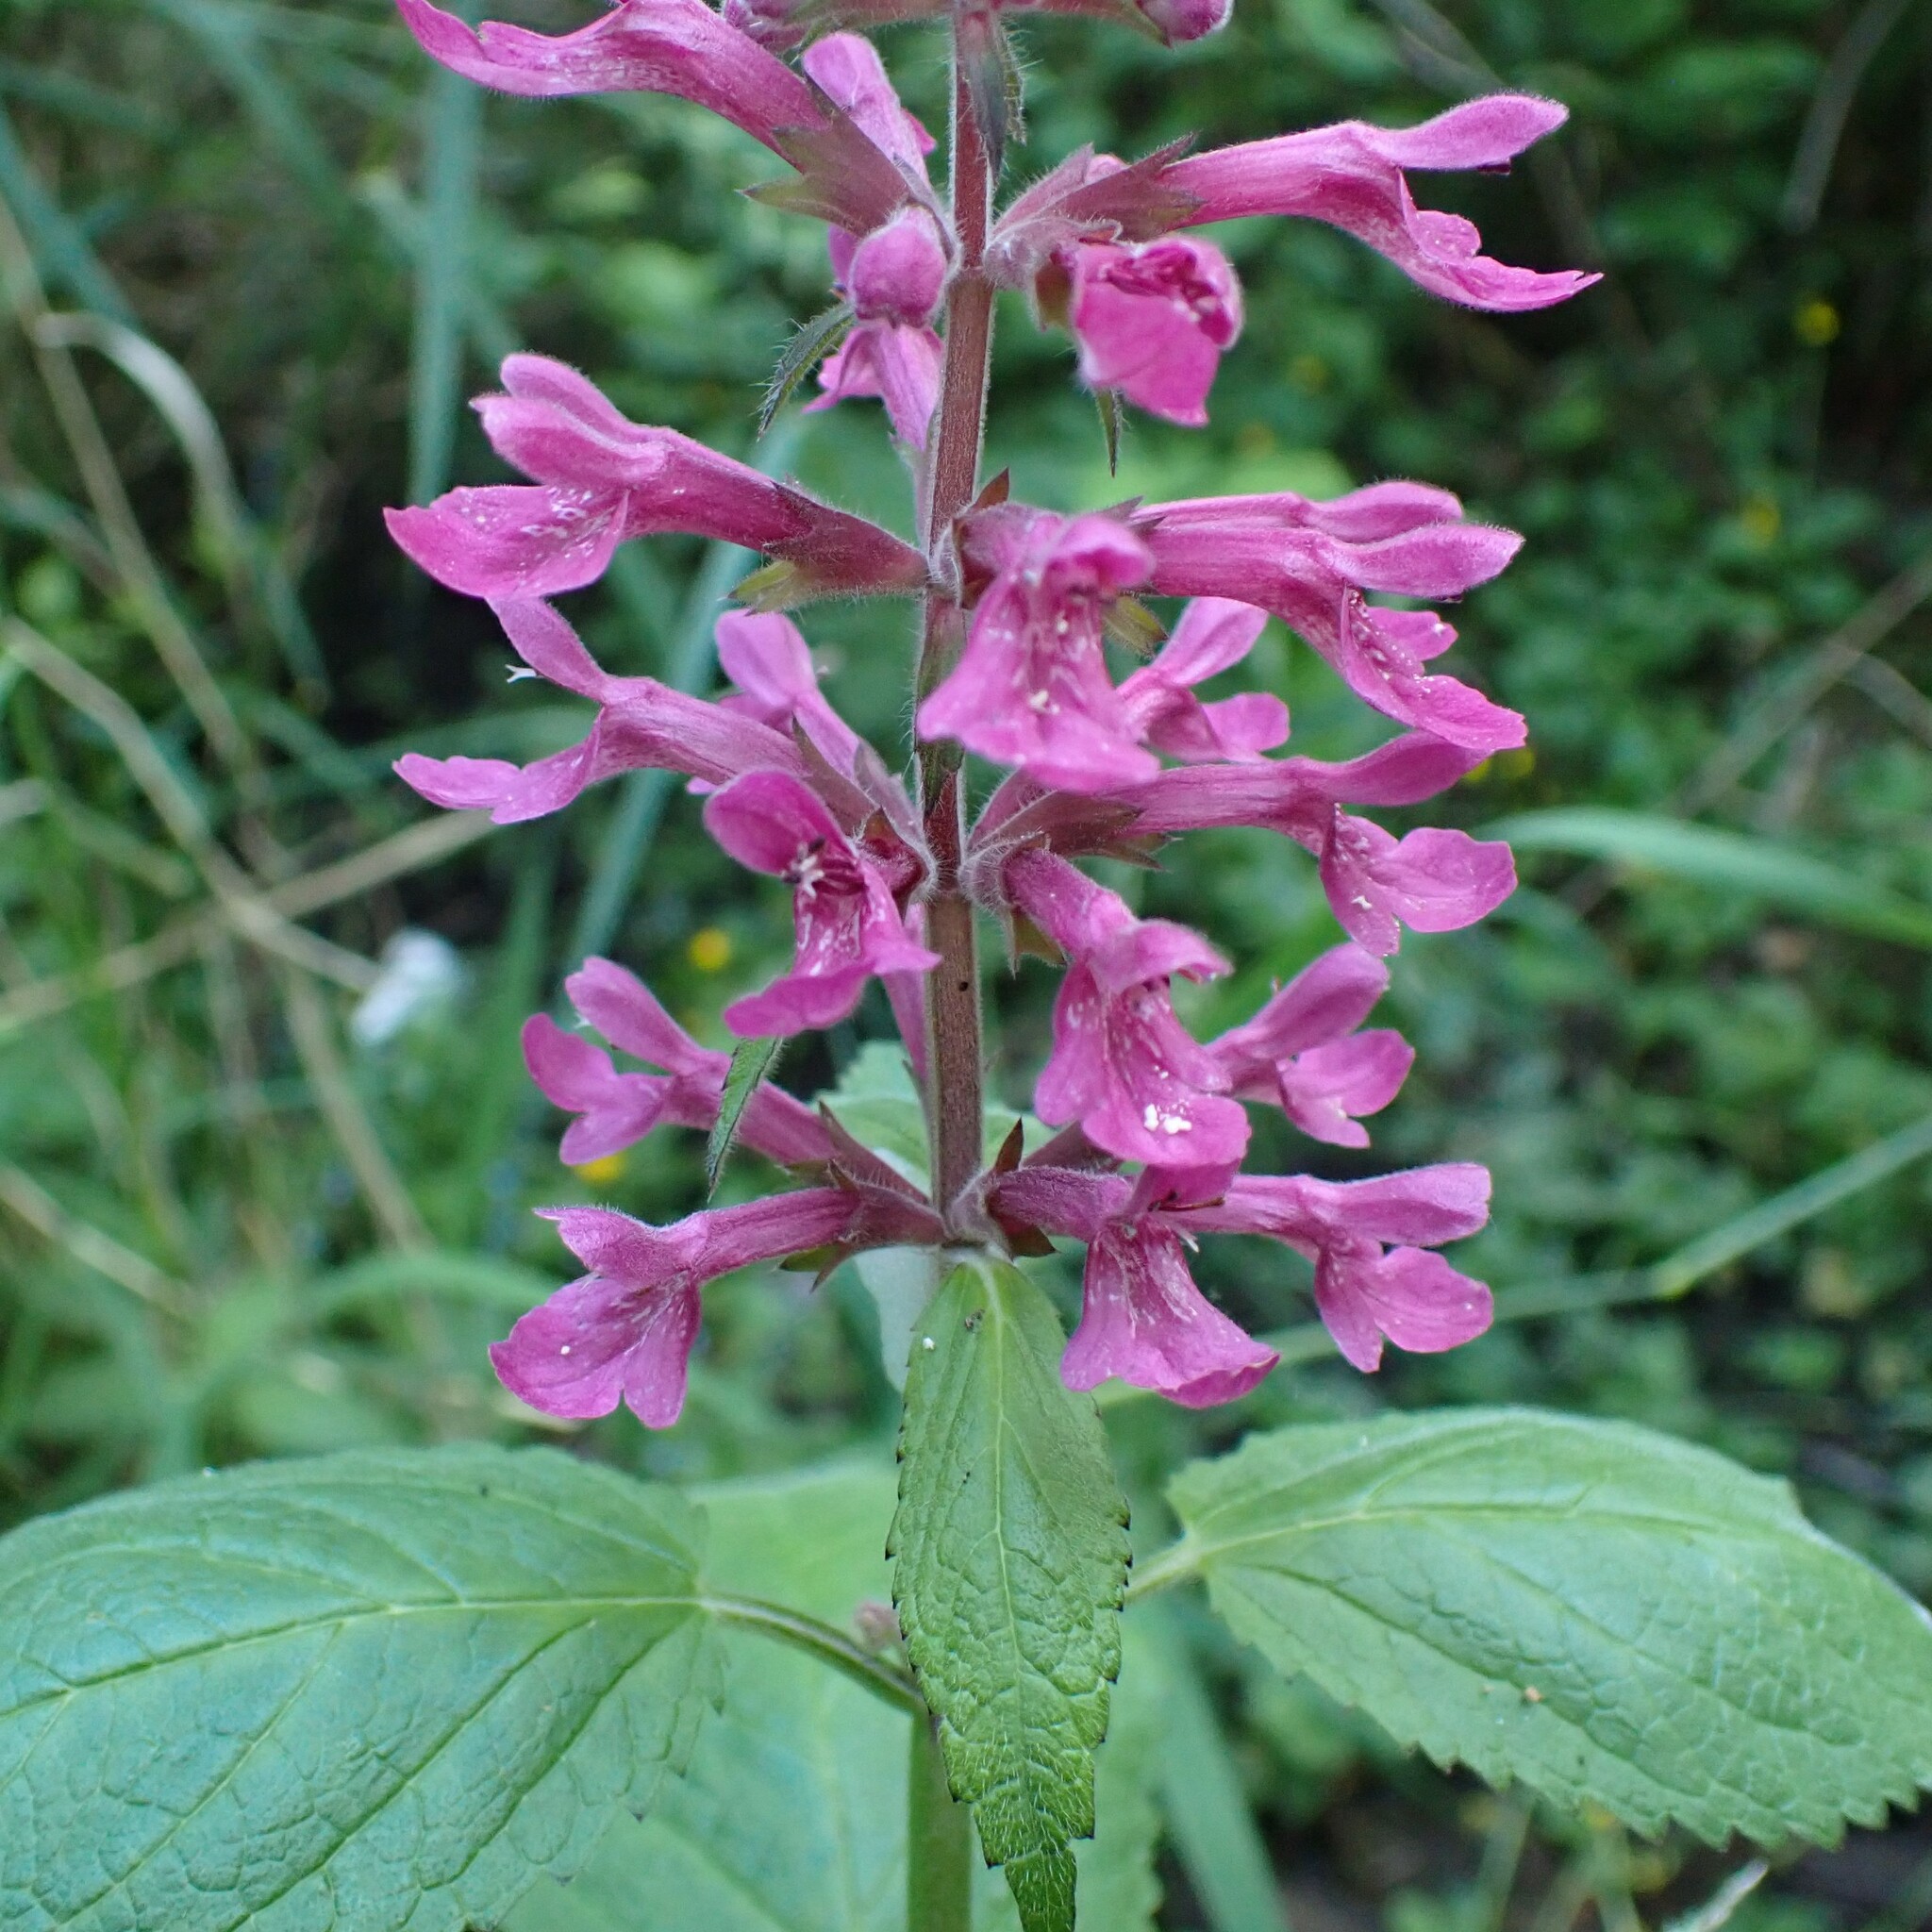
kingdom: Plantae
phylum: Tracheophyta
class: Magnoliopsida
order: Lamiales
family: Lamiaceae
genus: Stachys
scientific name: Stachys chamissonis
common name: Coastal hedge-nettle
